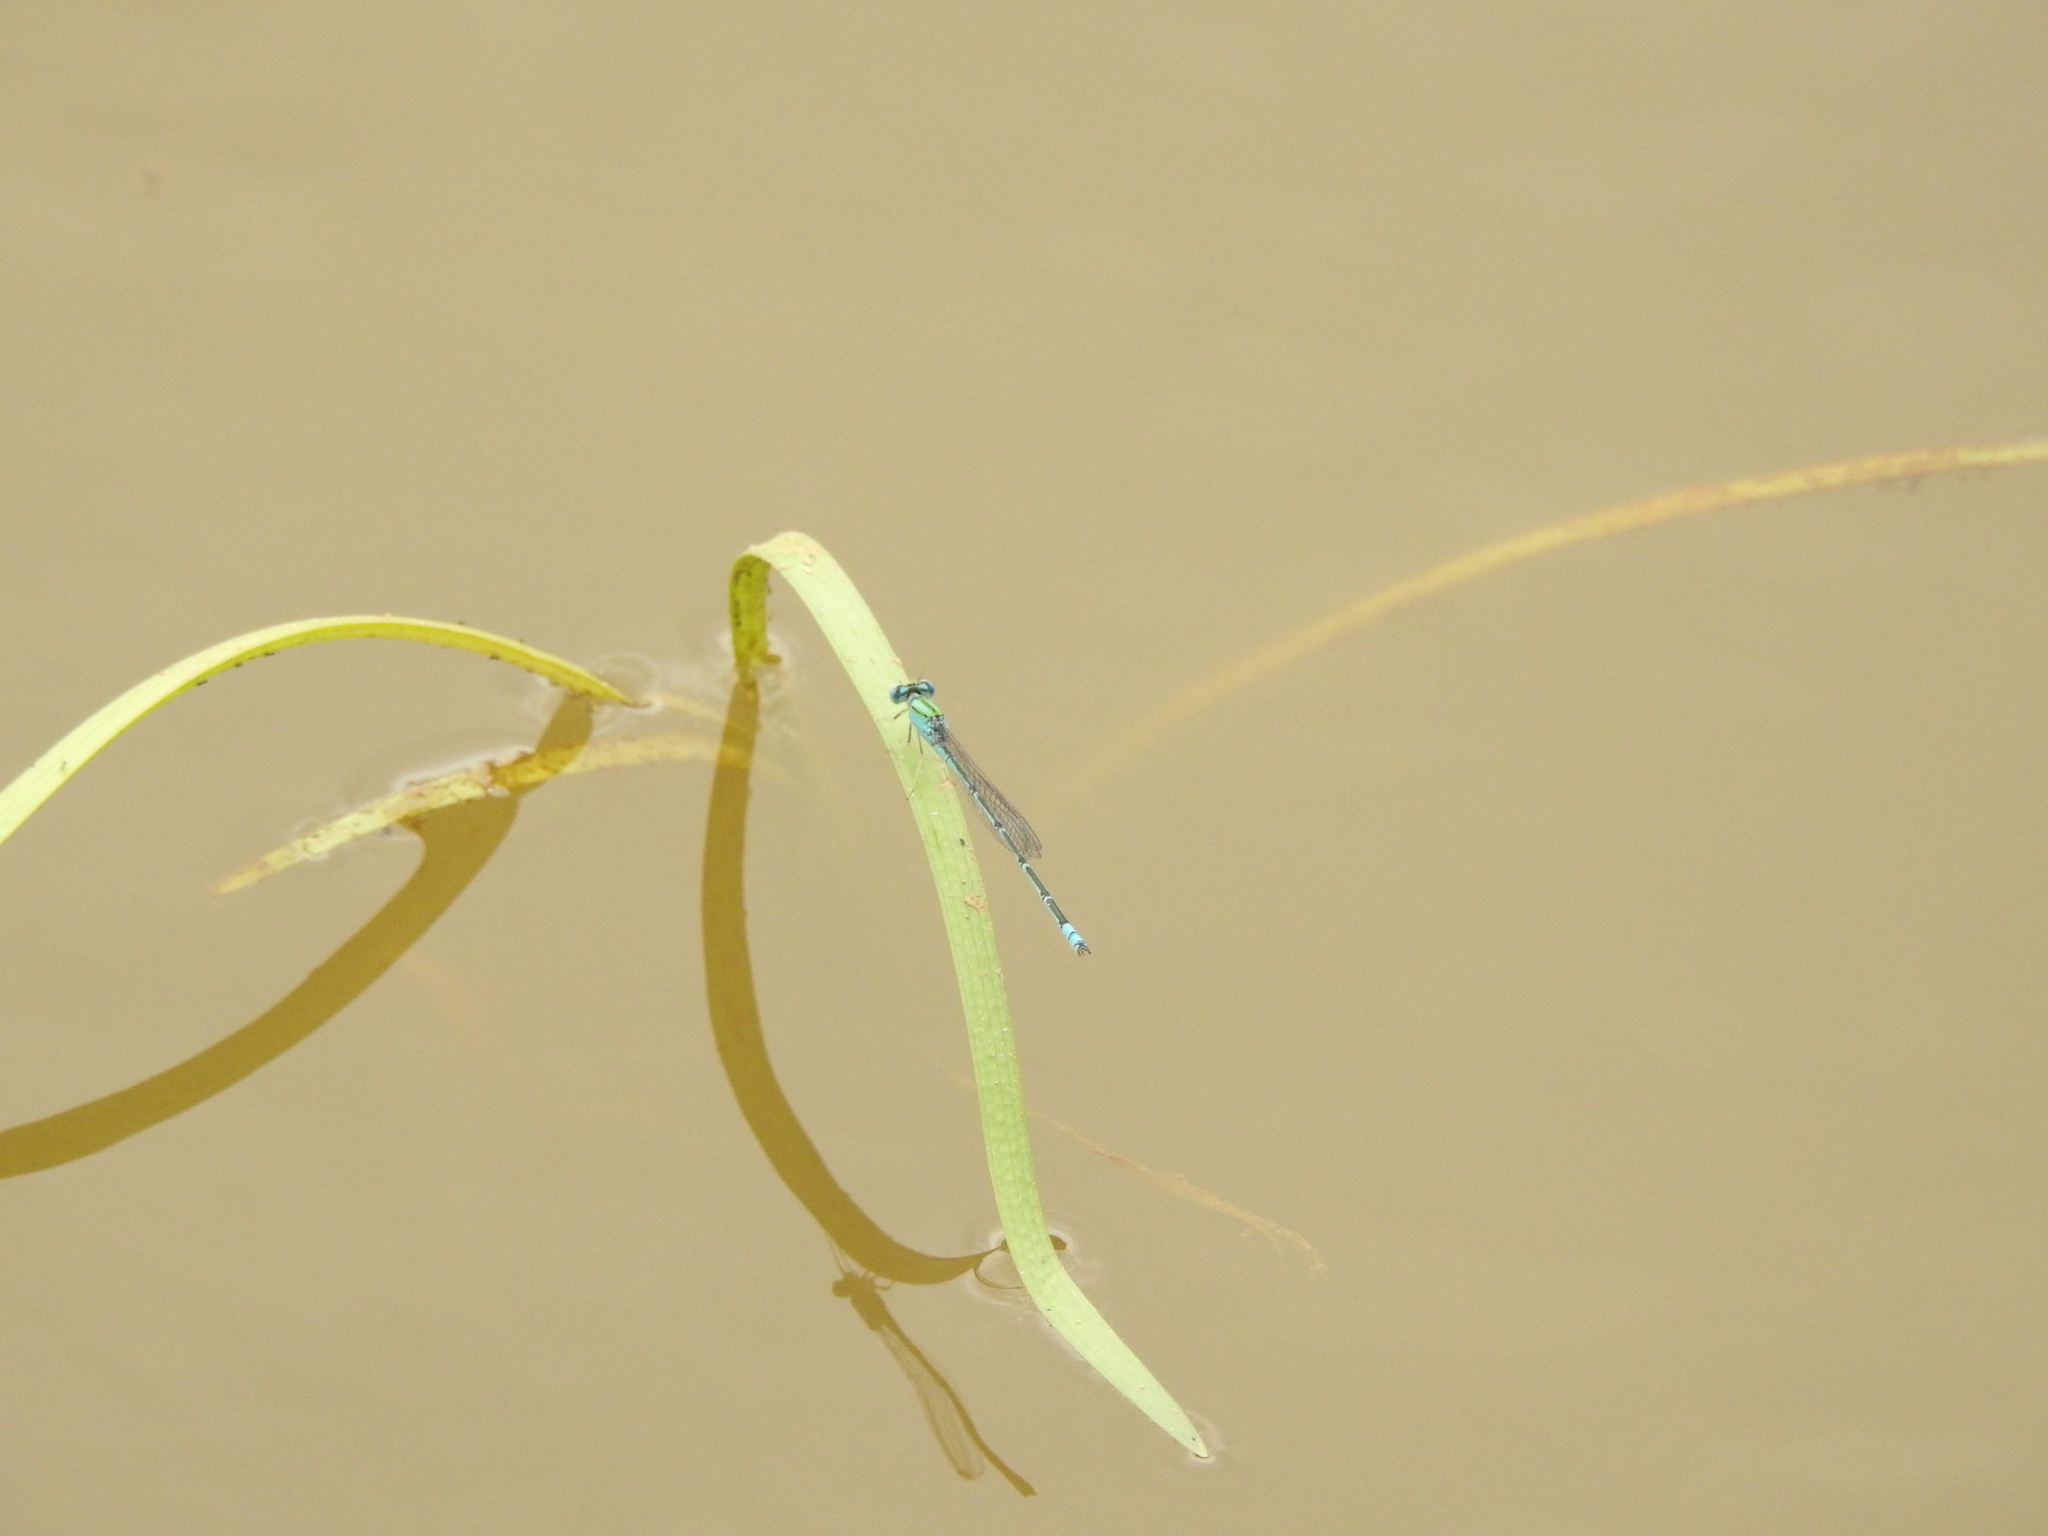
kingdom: Animalia
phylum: Arthropoda
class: Insecta
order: Odonata
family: Coenagrionidae
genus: Pseudagrion
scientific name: Pseudagrion decorum
